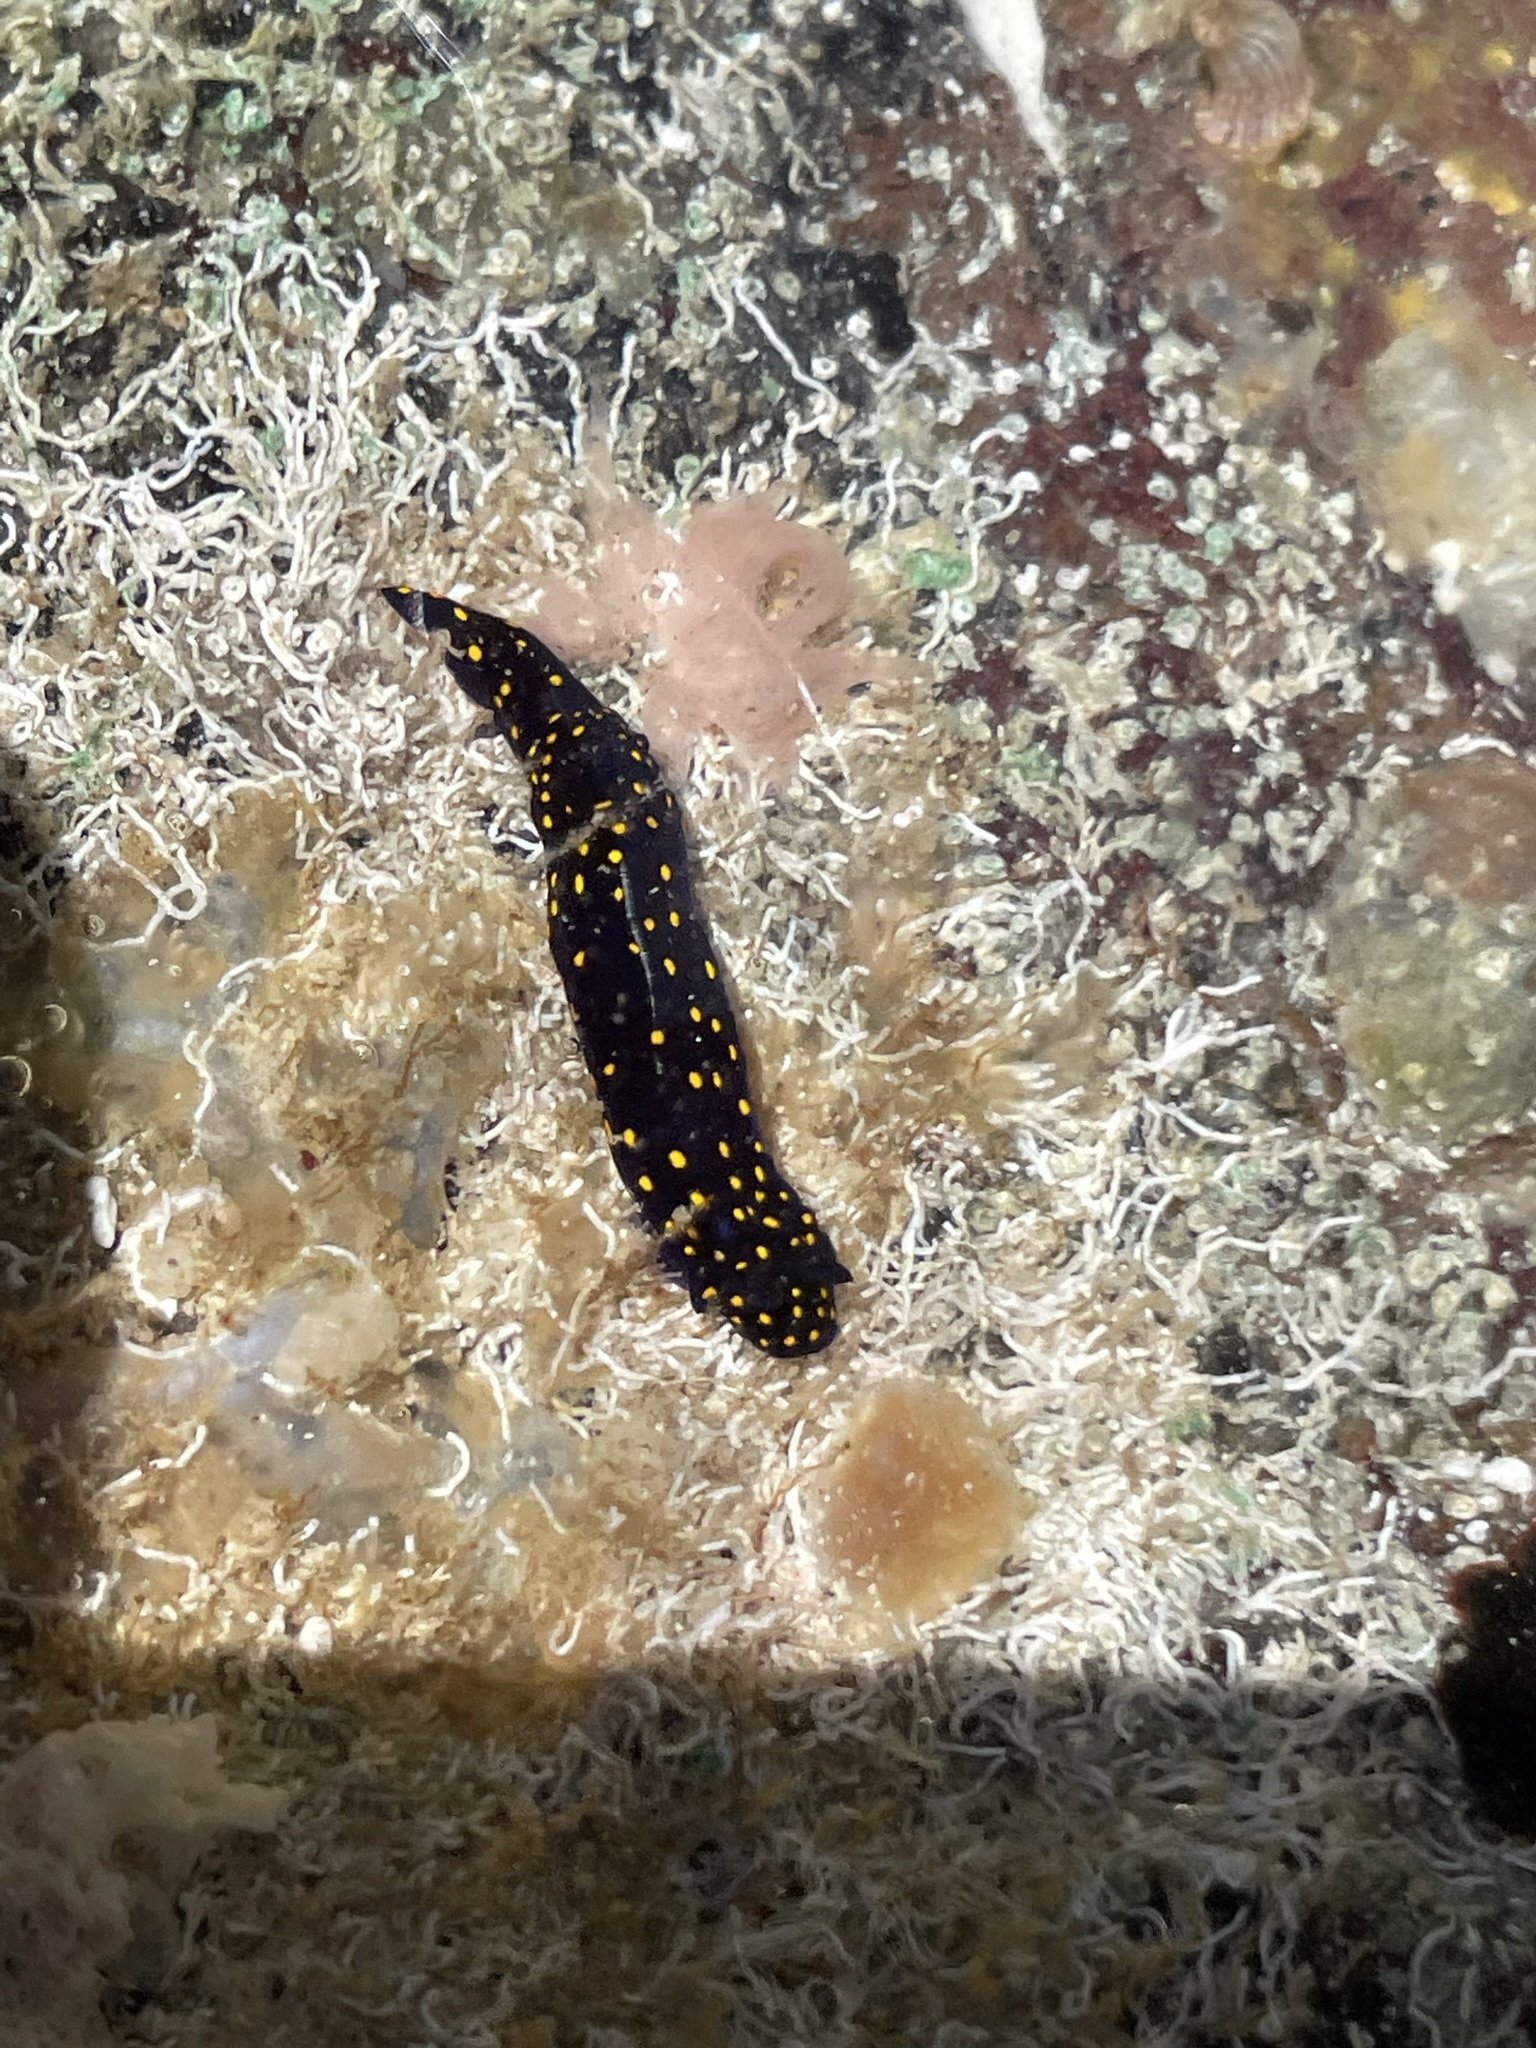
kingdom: Animalia
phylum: Mollusca
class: Gastropoda
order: Nudibranchia
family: Chromodorididae
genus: Felimare
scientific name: Felimare californiensis
